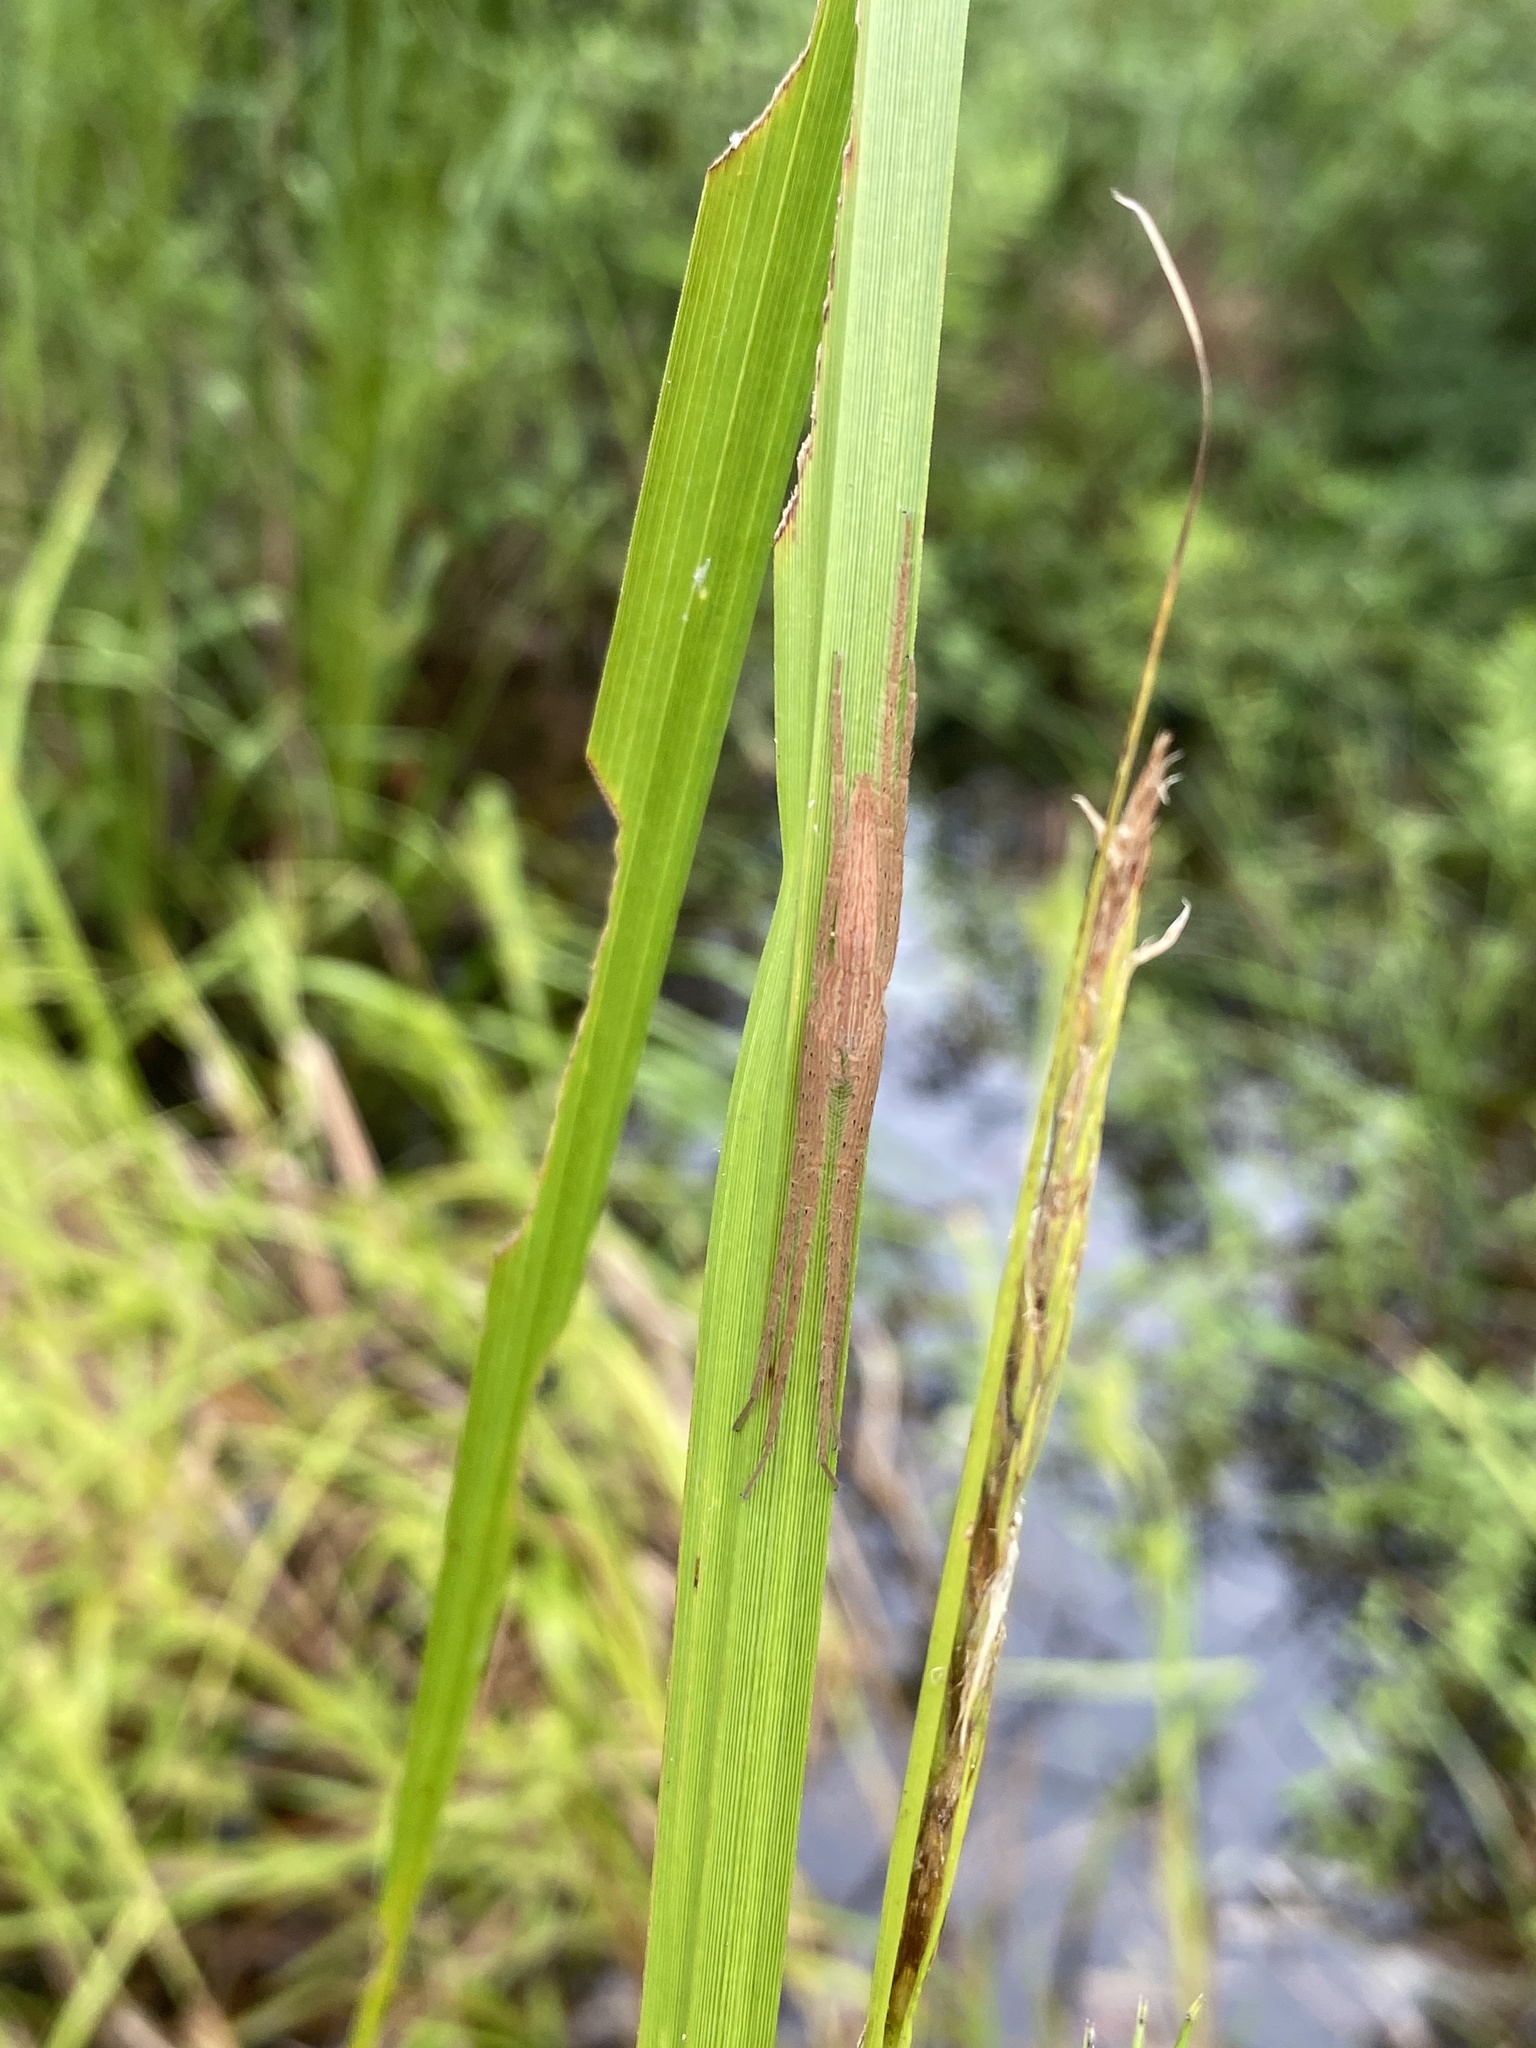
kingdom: Animalia
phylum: Arthropoda
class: Arachnida
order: Araneae
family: Pisauridae
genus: Pisaurina
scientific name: Pisaurina undulata
